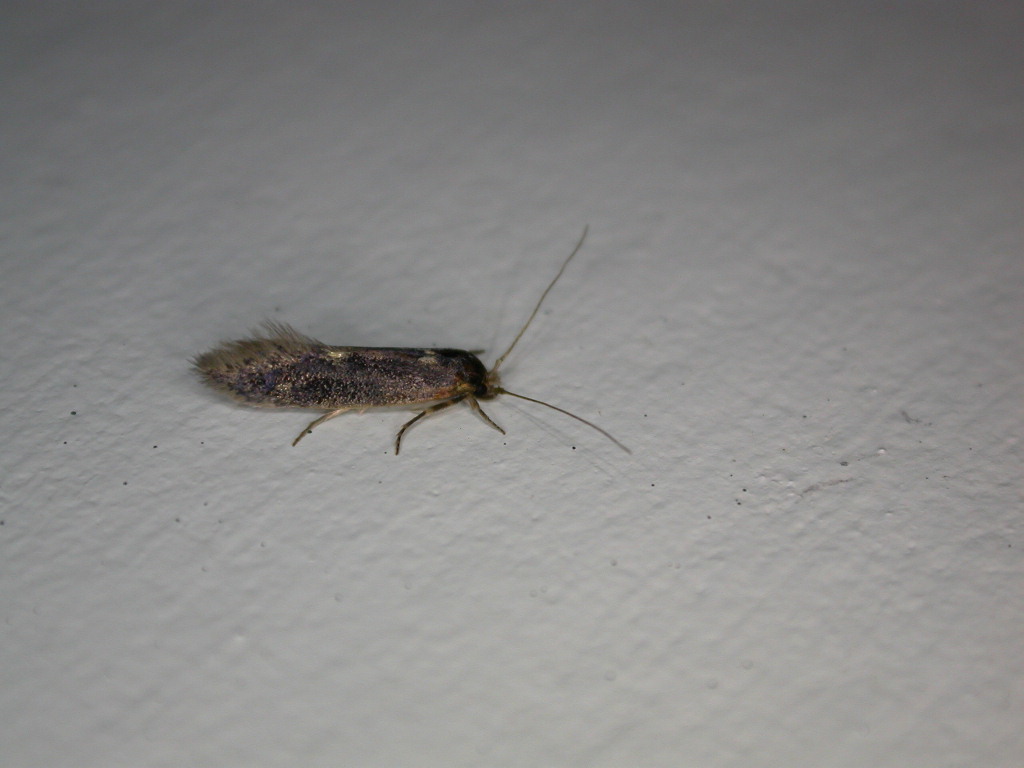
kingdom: Animalia
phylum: Arthropoda
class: Insecta
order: Lepidoptera
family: Tineidae
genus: Opogona
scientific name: Opogona omoscopa
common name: Moth
